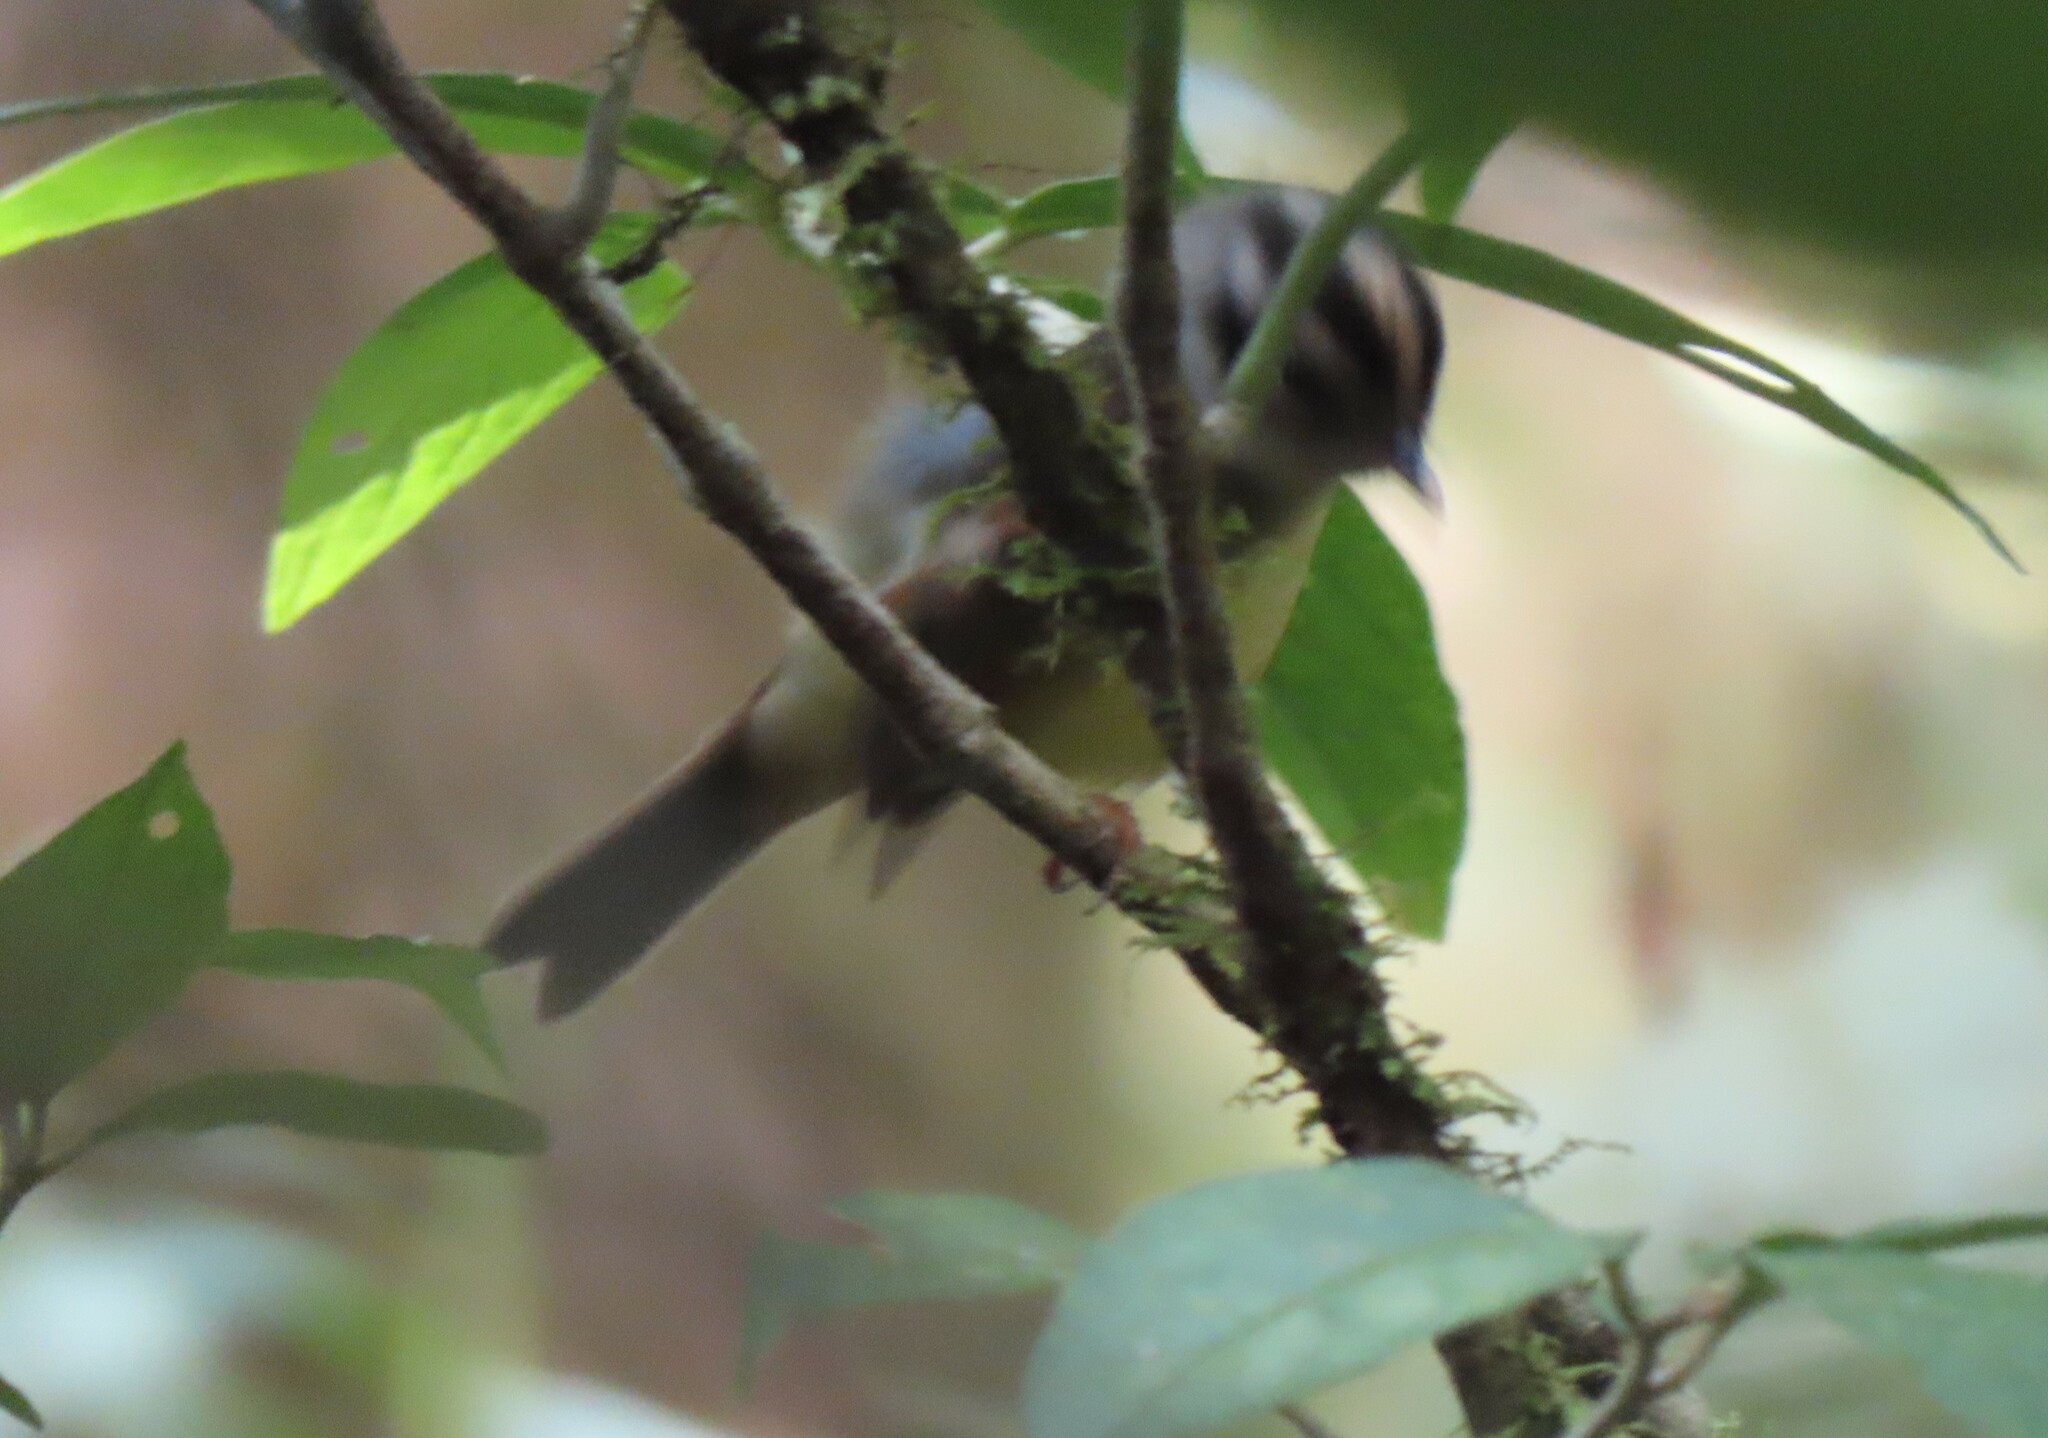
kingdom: Animalia
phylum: Chordata
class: Aves
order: Passeriformes
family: Parulidae
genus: Basileuterus
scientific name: Basileuterus melanotis
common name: Black-eared warbler
